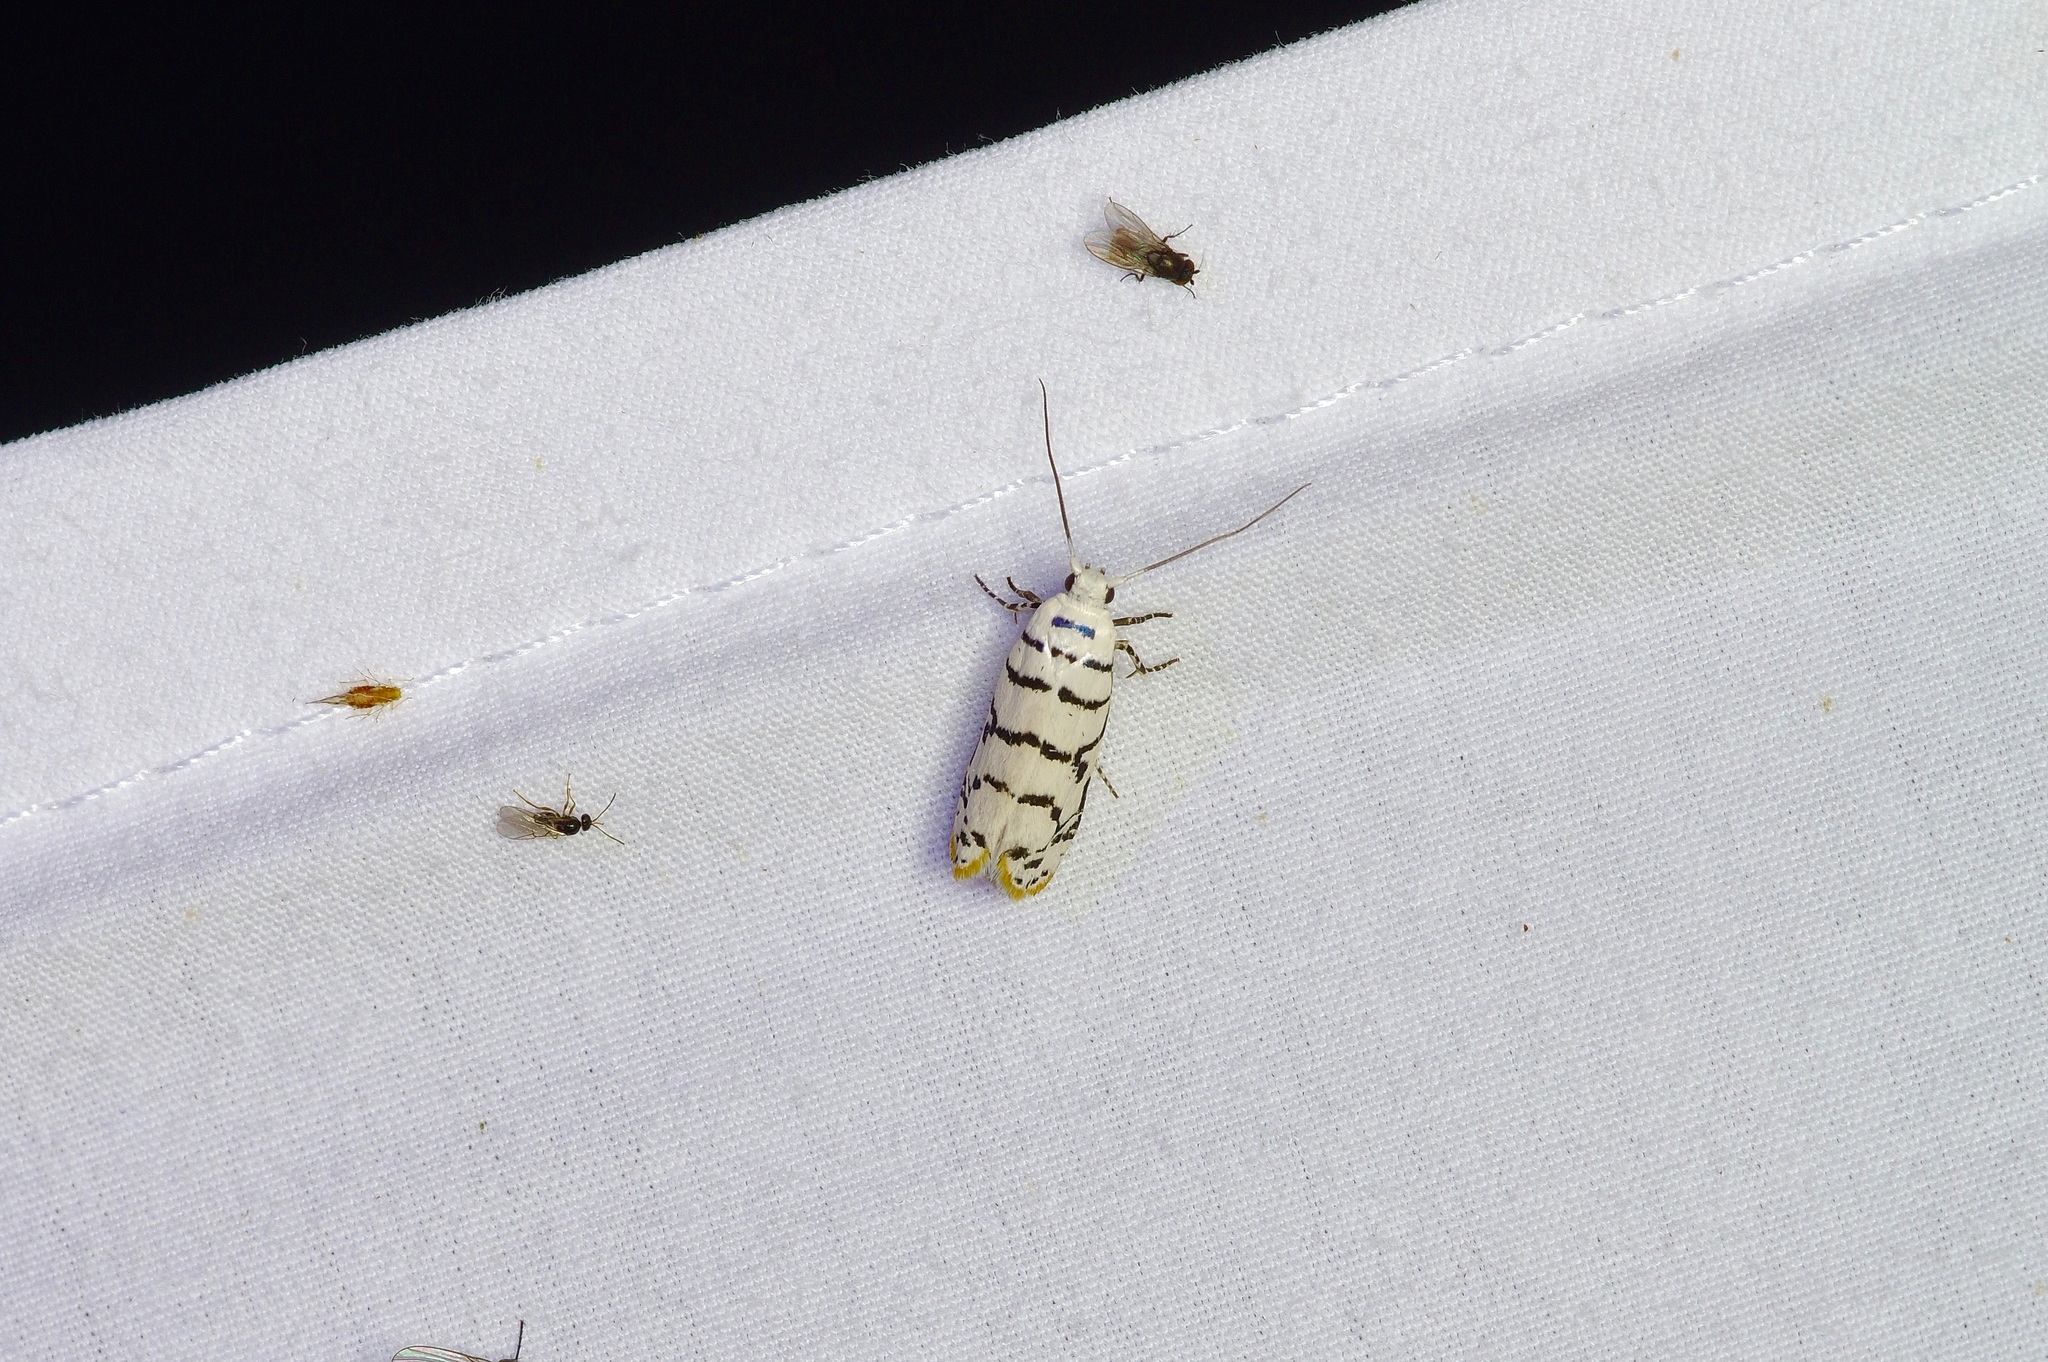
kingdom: Animalia
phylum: Arthropoda
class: Insecta
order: Lepidoptera
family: Ethmiidae
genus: Ethmia
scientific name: Ethmia delliella
